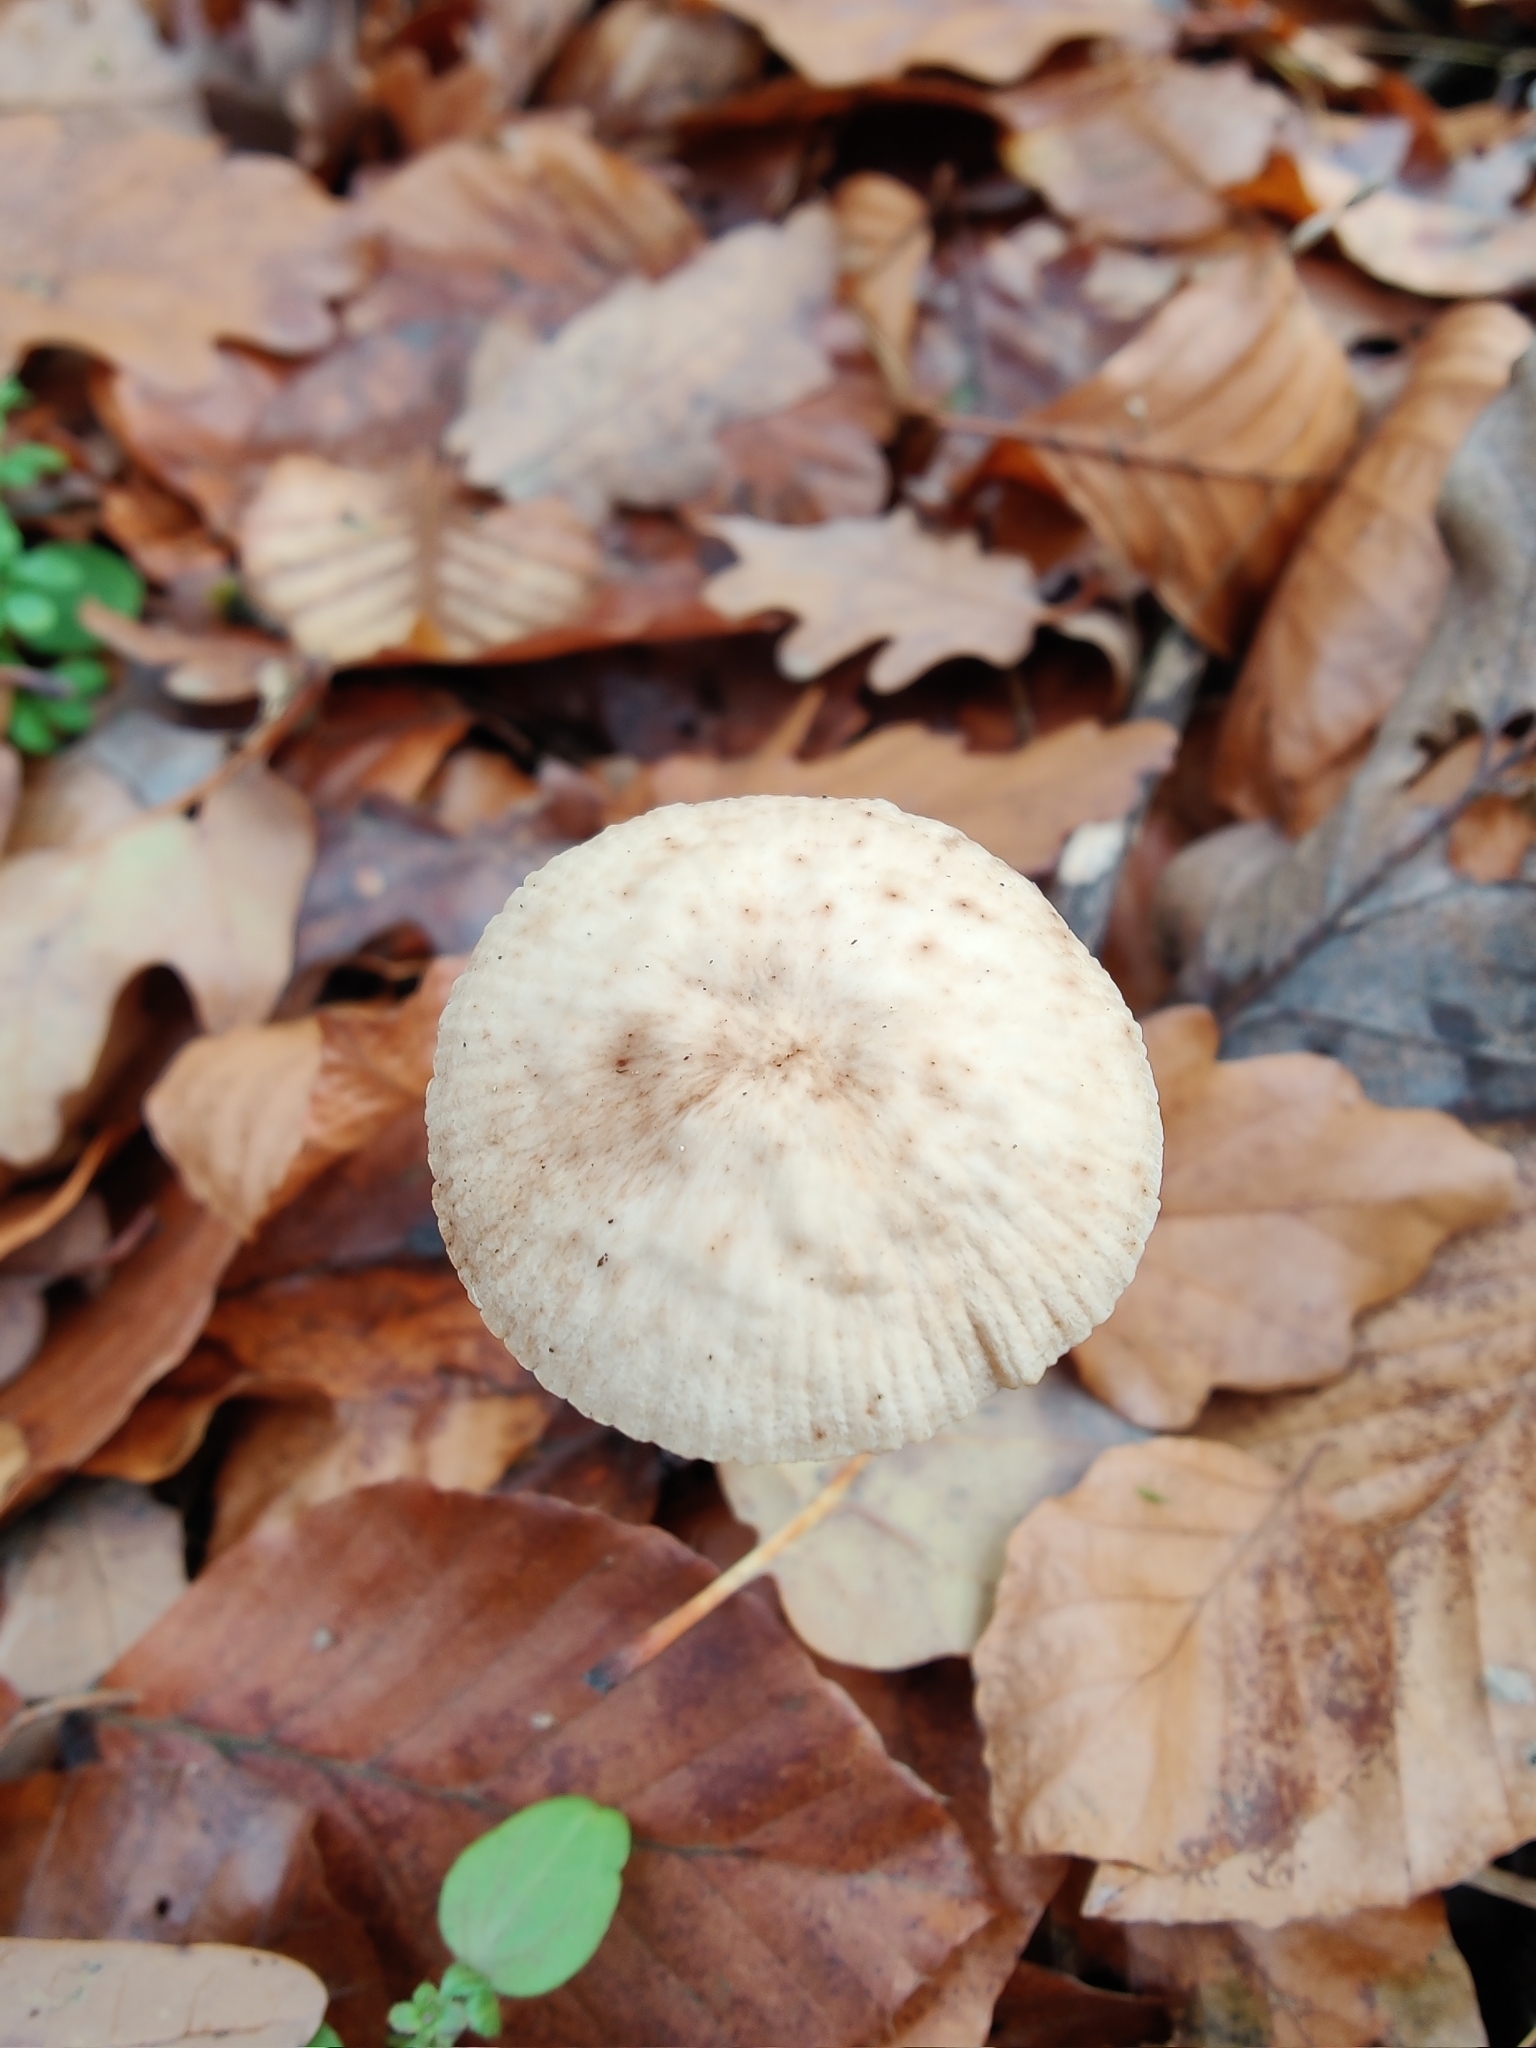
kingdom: Fungi
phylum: Basidiomycota
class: Agaricomycetes
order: Agaricales
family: Omphalotaceae
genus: Mycetinis
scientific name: Mycetinis alliaceus
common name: Garlic parachute
